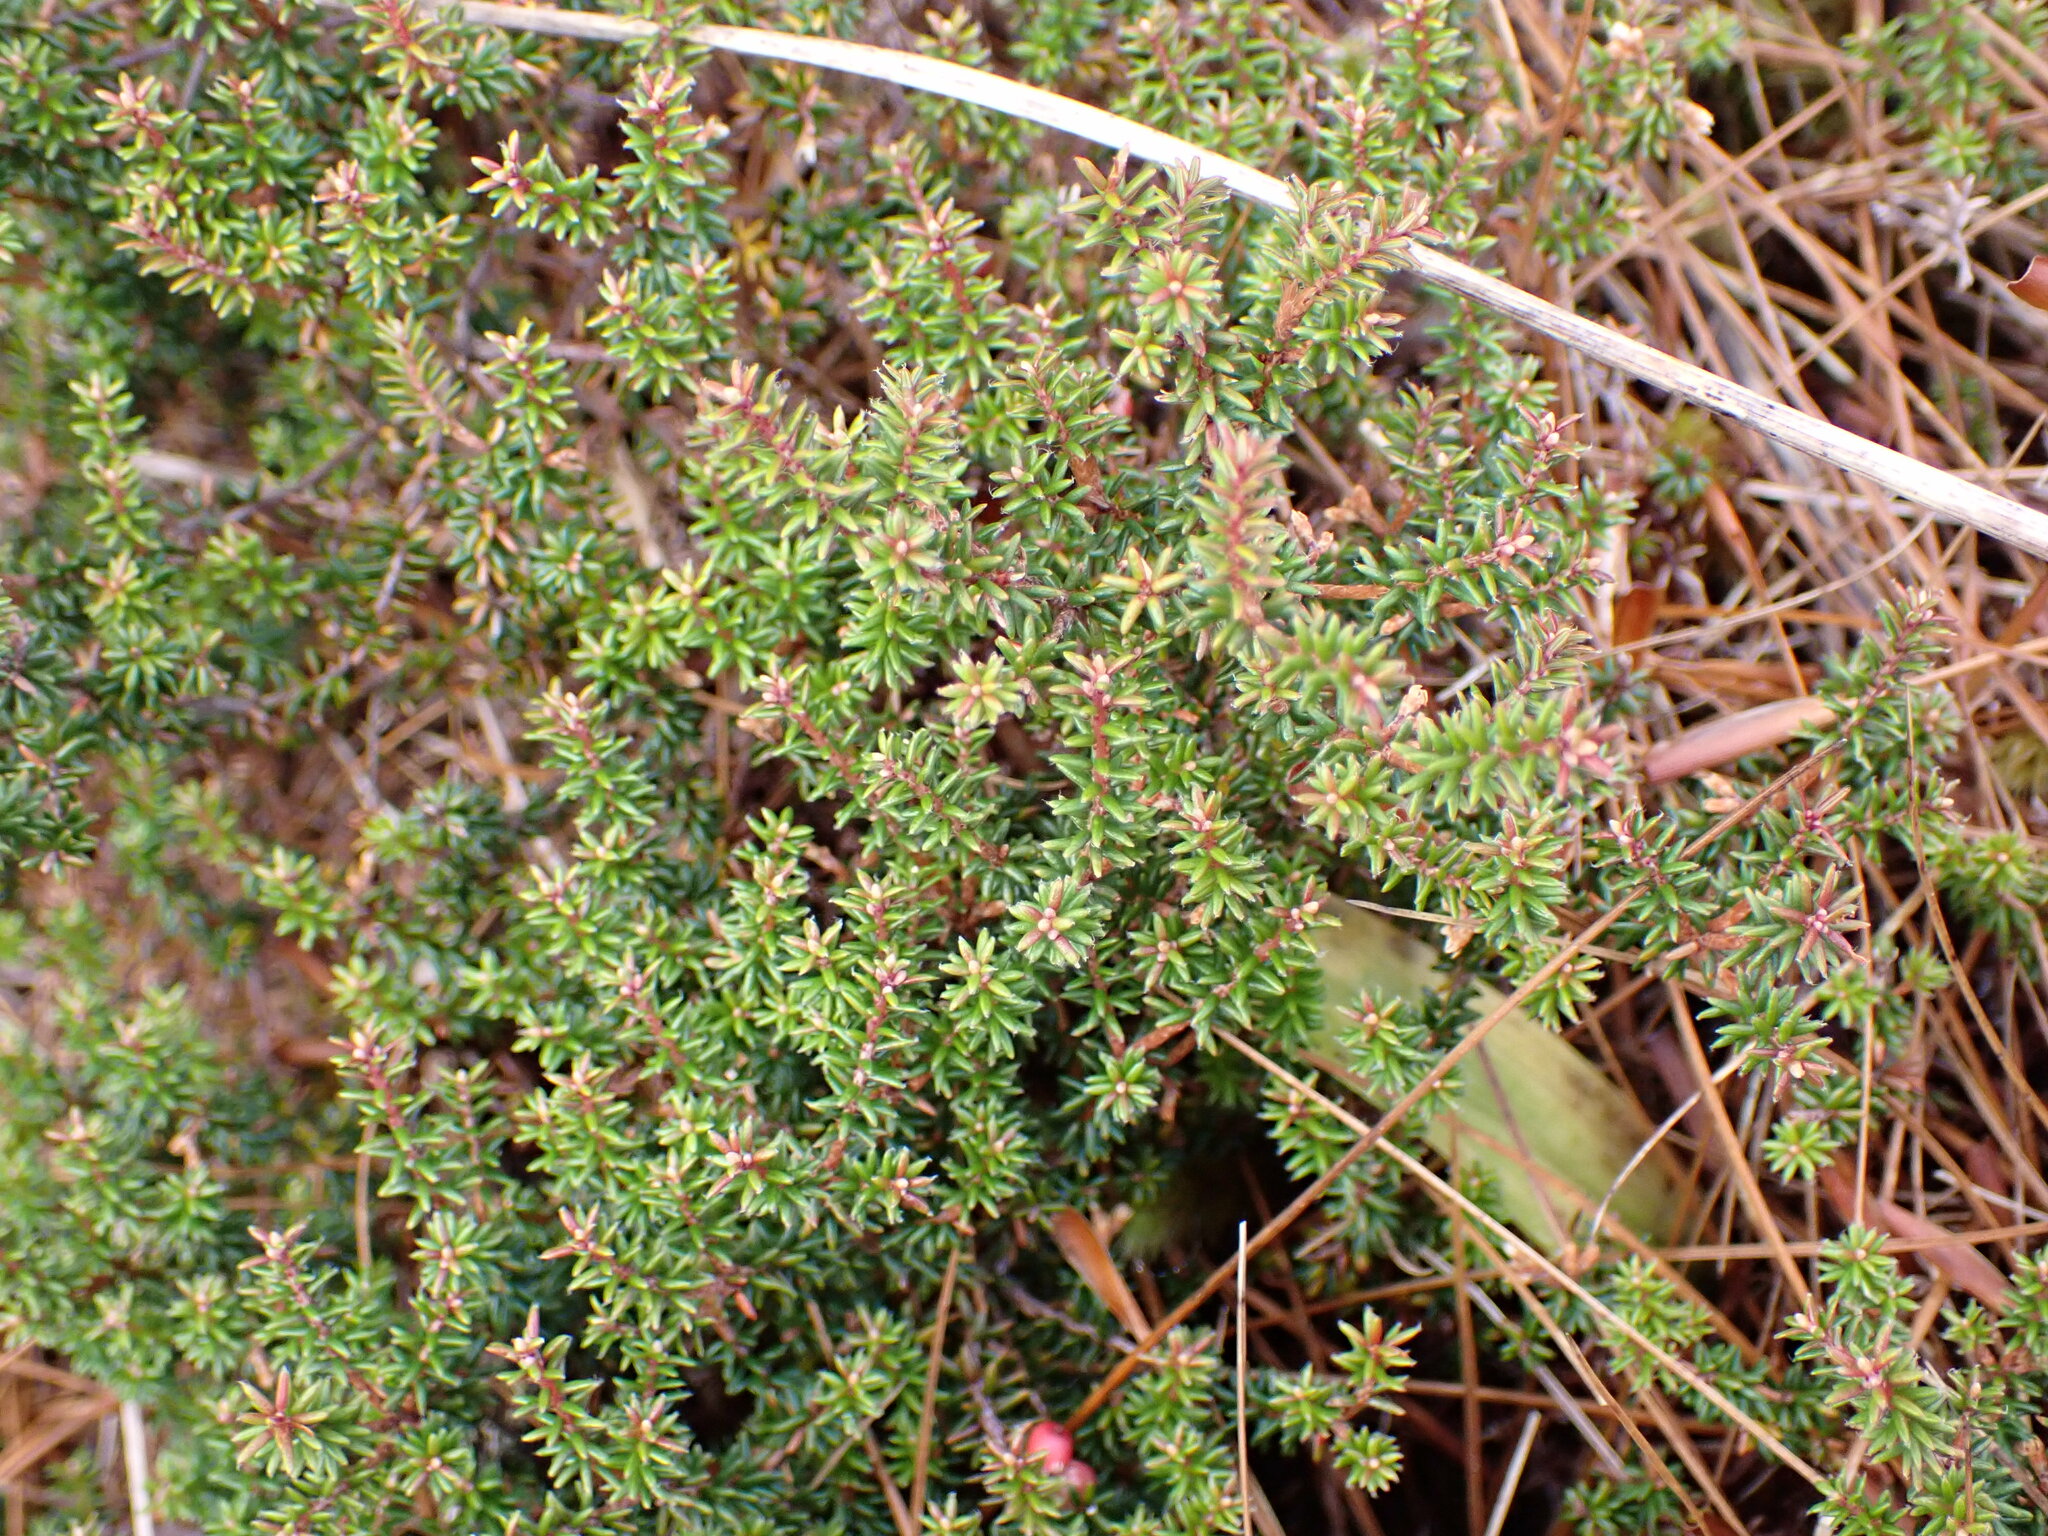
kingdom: Plantae
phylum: Tracheophyta
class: Magnoliopsida
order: Ericales
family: Ericaceae
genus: Androstoma
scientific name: Androstoma empetrifolia
